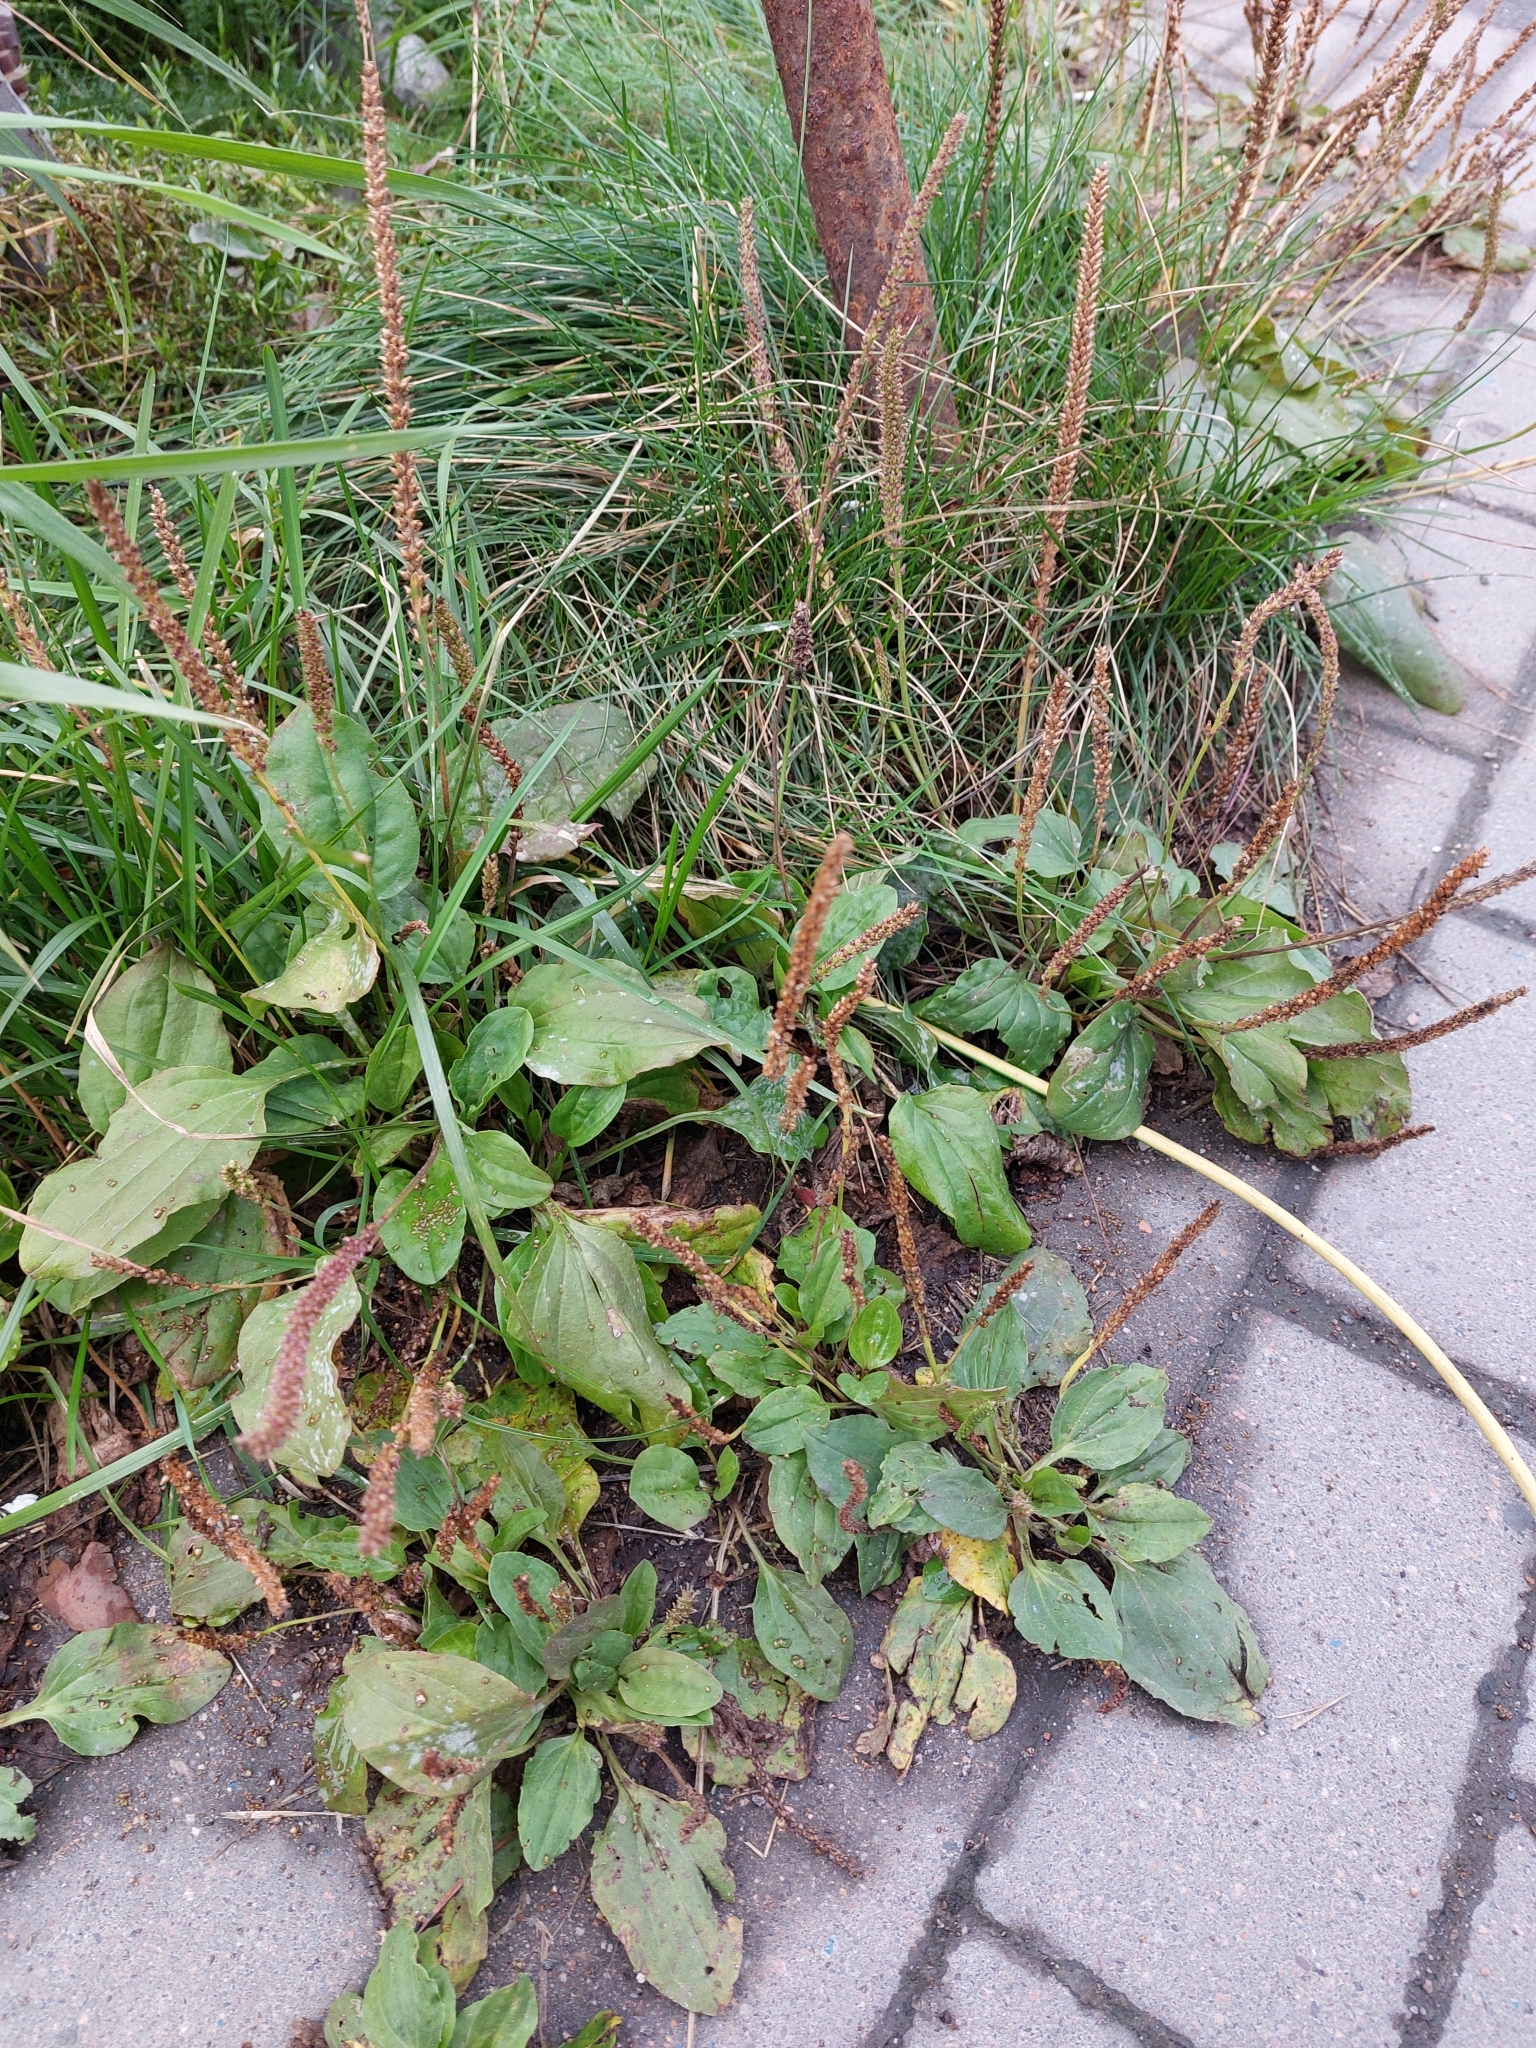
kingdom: Plantae
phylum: Tracheophyta
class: Magnoliopsida
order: Lamiales
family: Plantaginaceae
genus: Plantago
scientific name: Plantago major
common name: Common plantain
